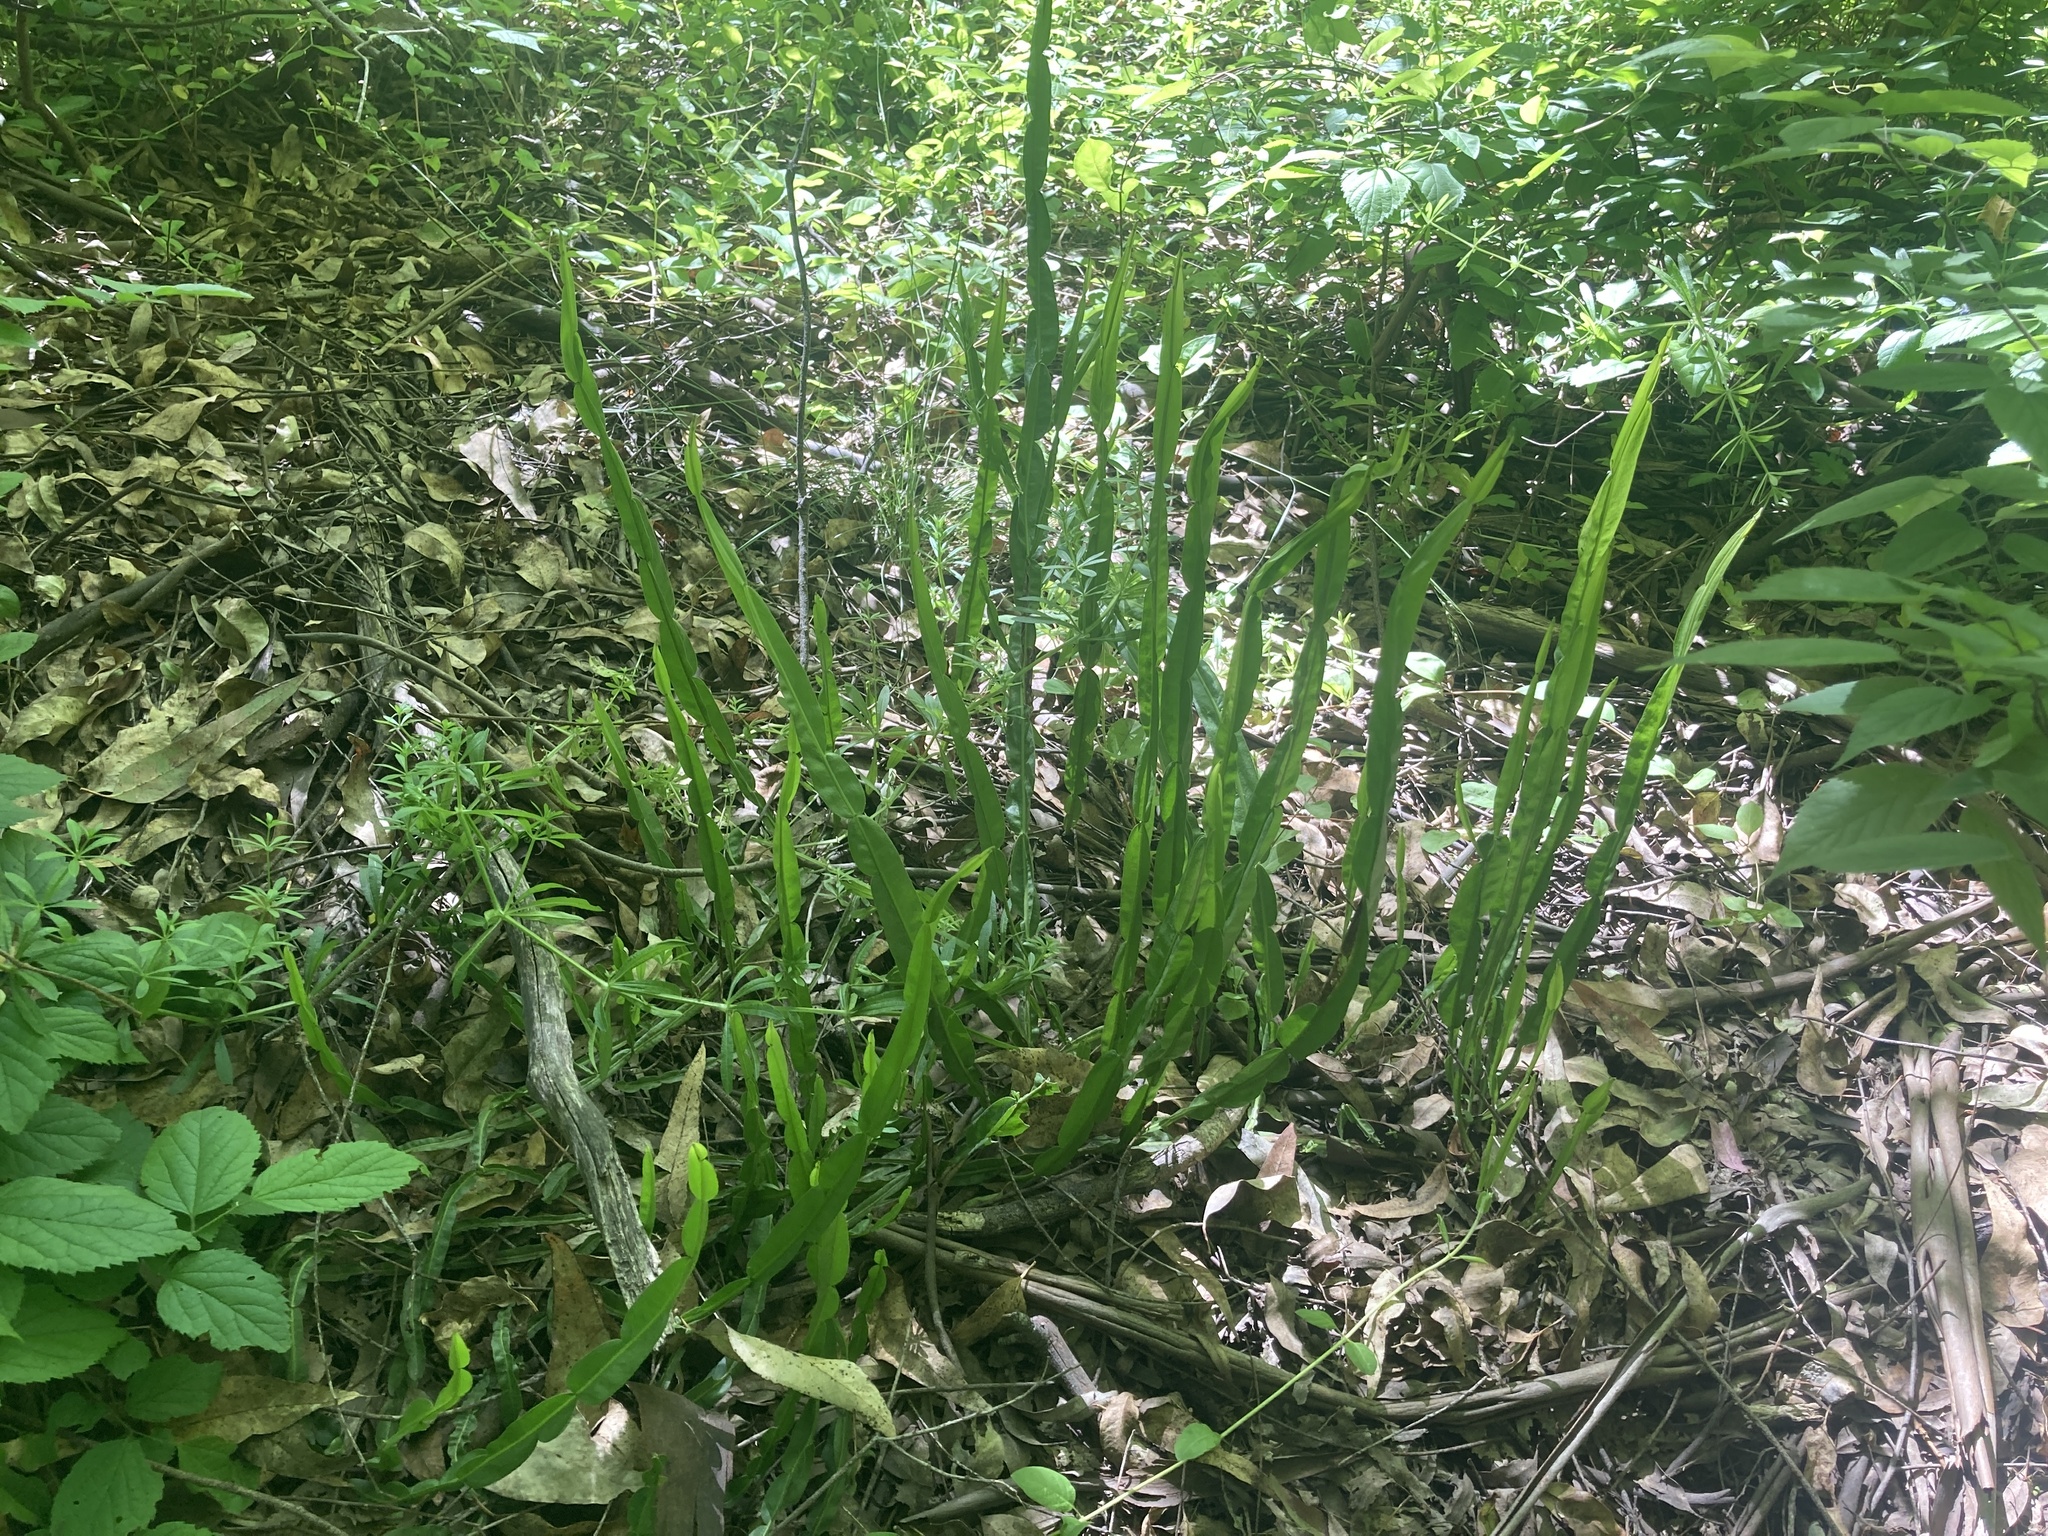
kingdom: Plantae
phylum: Tracheophyta
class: Magnoliopsida
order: Asterales
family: Asteraceae
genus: Baccharis
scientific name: Baccharis trimera
